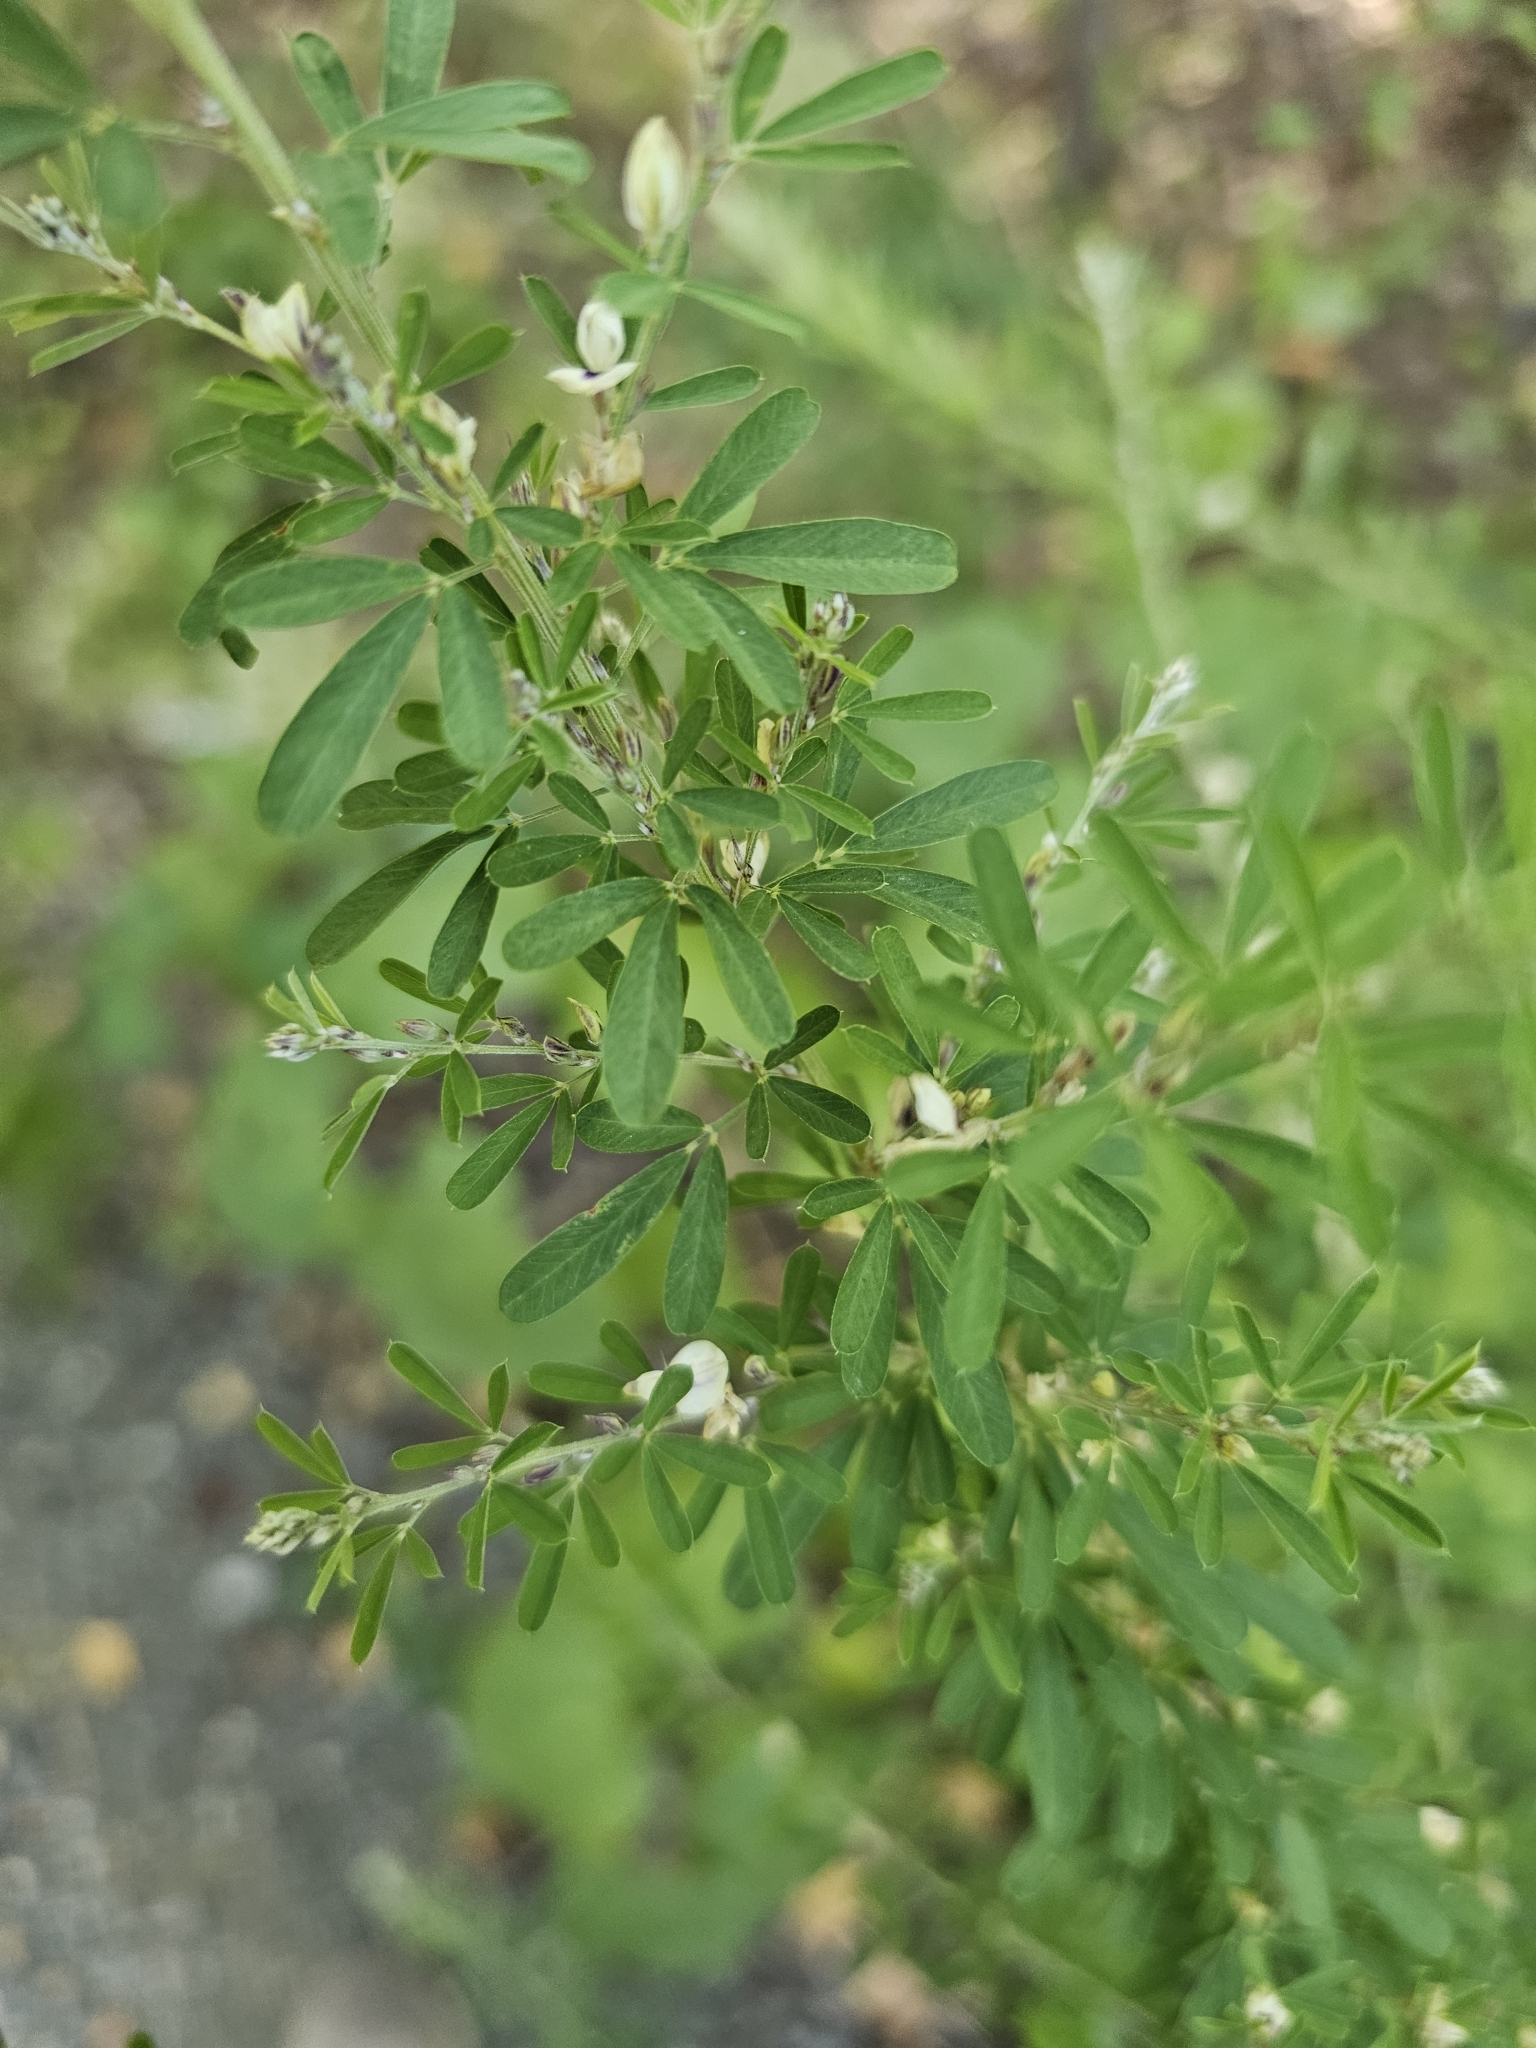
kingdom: Plantae
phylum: Tracheophyta
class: Magnoliopsida
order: Fabales
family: Fabaceae
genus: Lespedeza
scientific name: Lespedeza cuneata
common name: Chinese bush-clover
